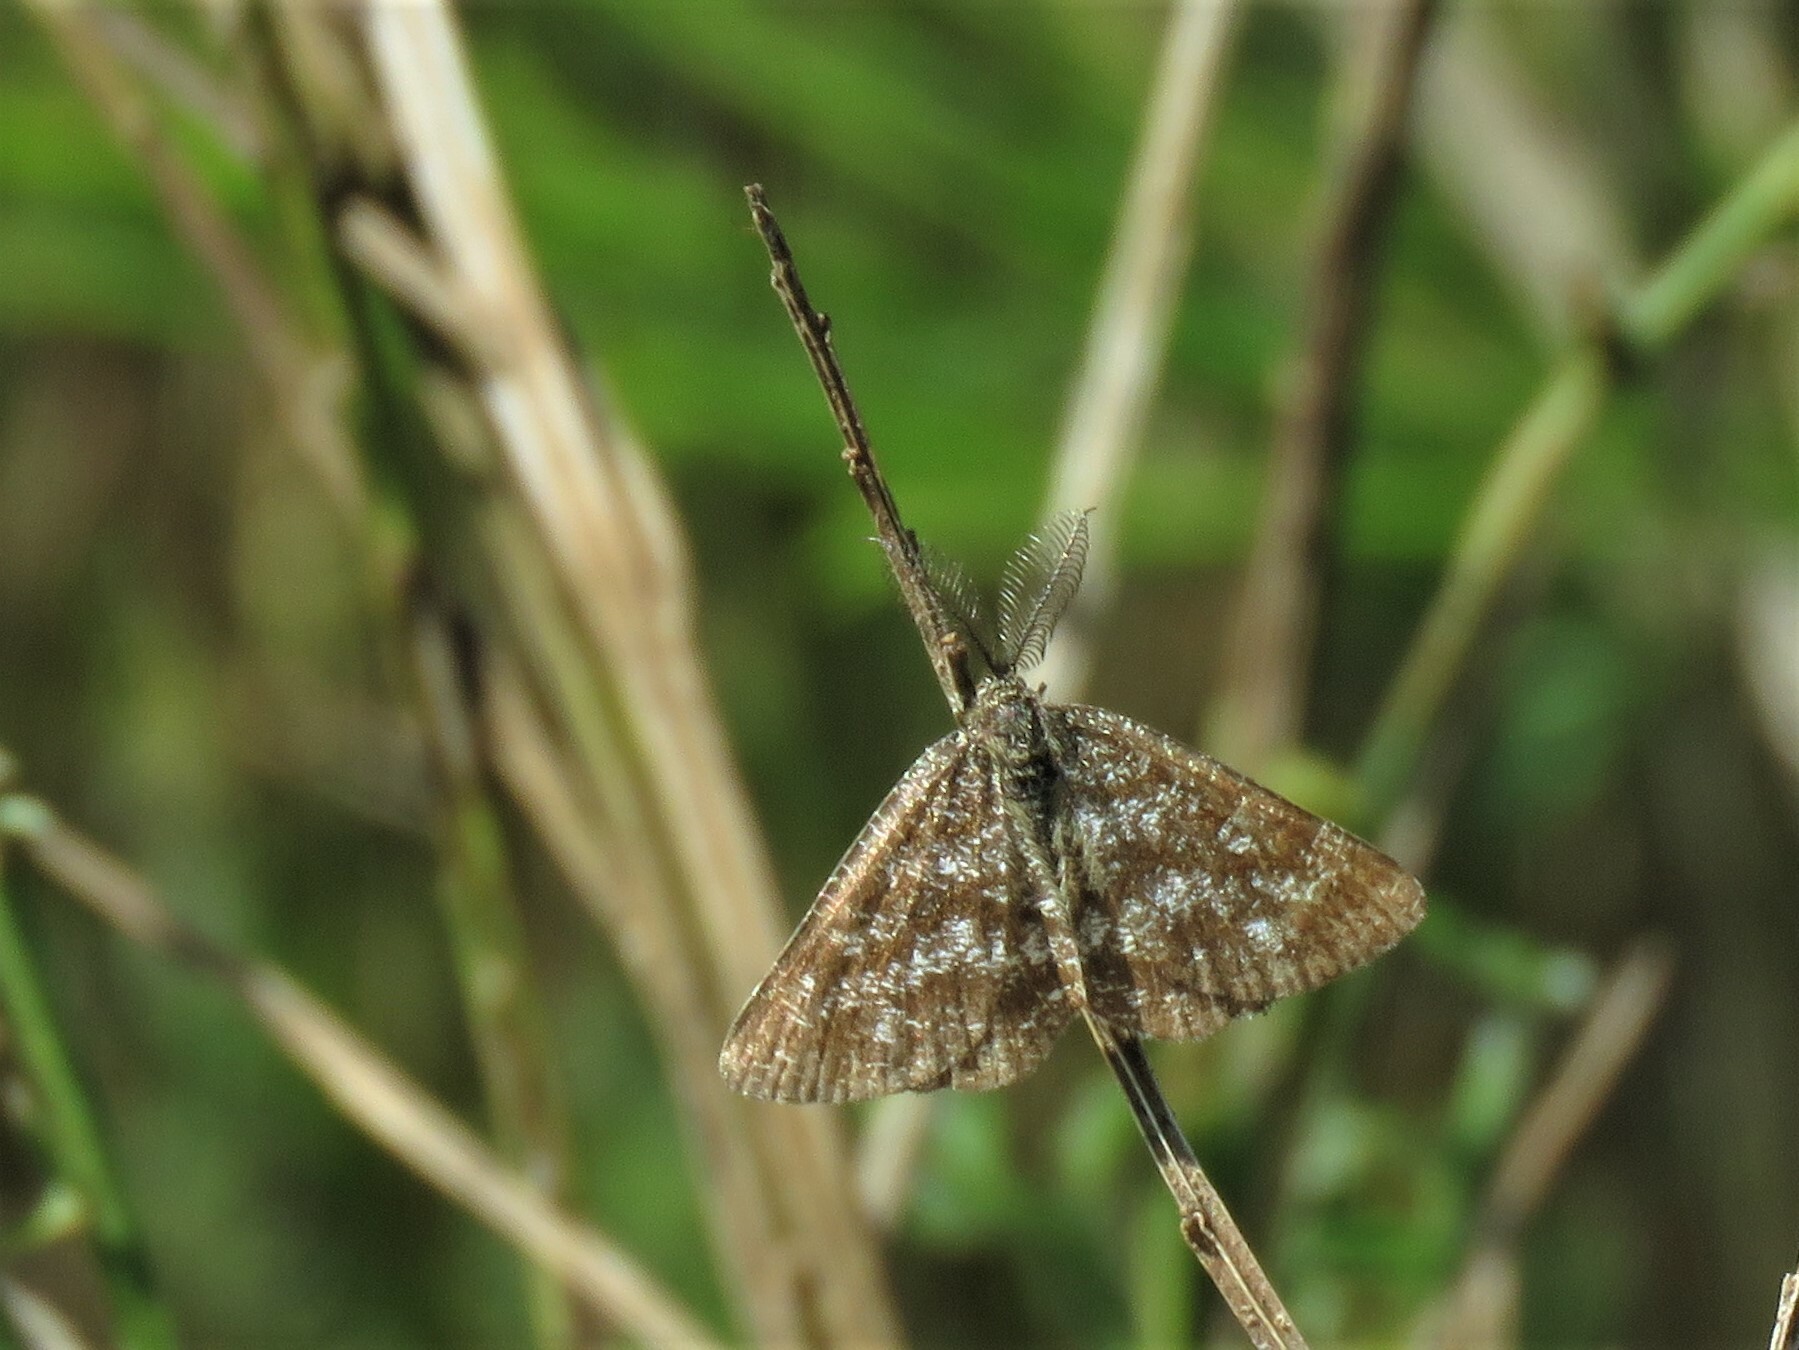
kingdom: Animalia
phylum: Arthropoda
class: Insecta
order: Lepidoptera
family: Geometridae
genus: Ematurga
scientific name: Ematurga atomaria
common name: Common heath
